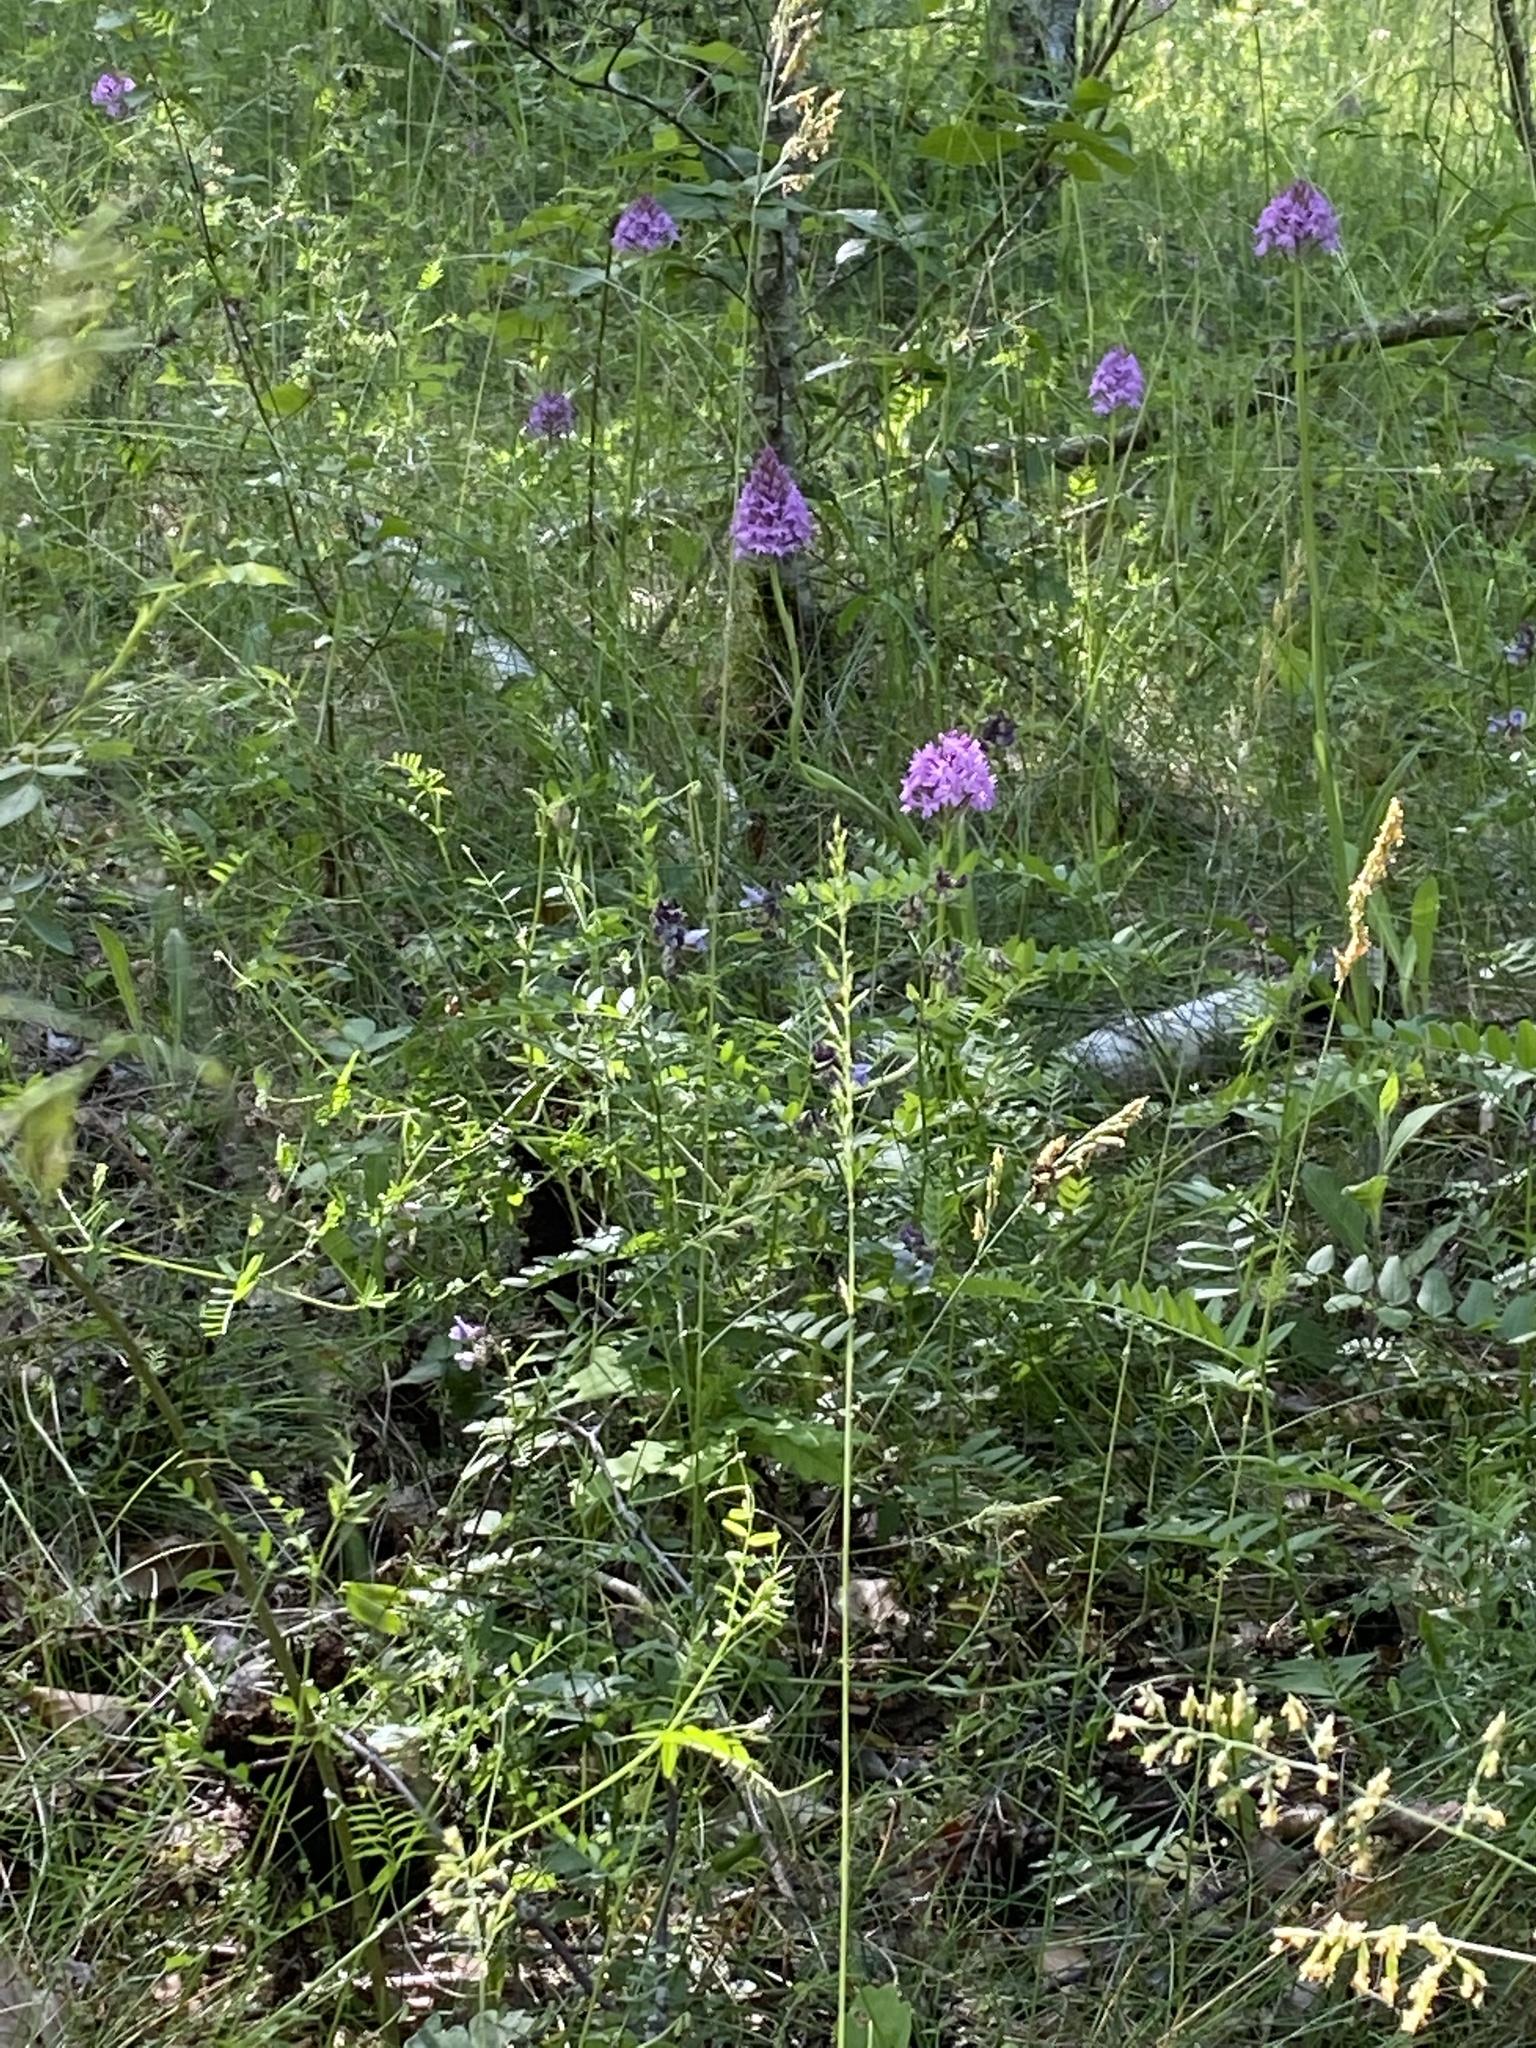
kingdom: Plantae
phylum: Tracheophyta
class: Liliopsida
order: Asparagales
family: Orchidaceae
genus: Anacamptis
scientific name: Anacamptis pyramidalis
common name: Pyramidal orchid
